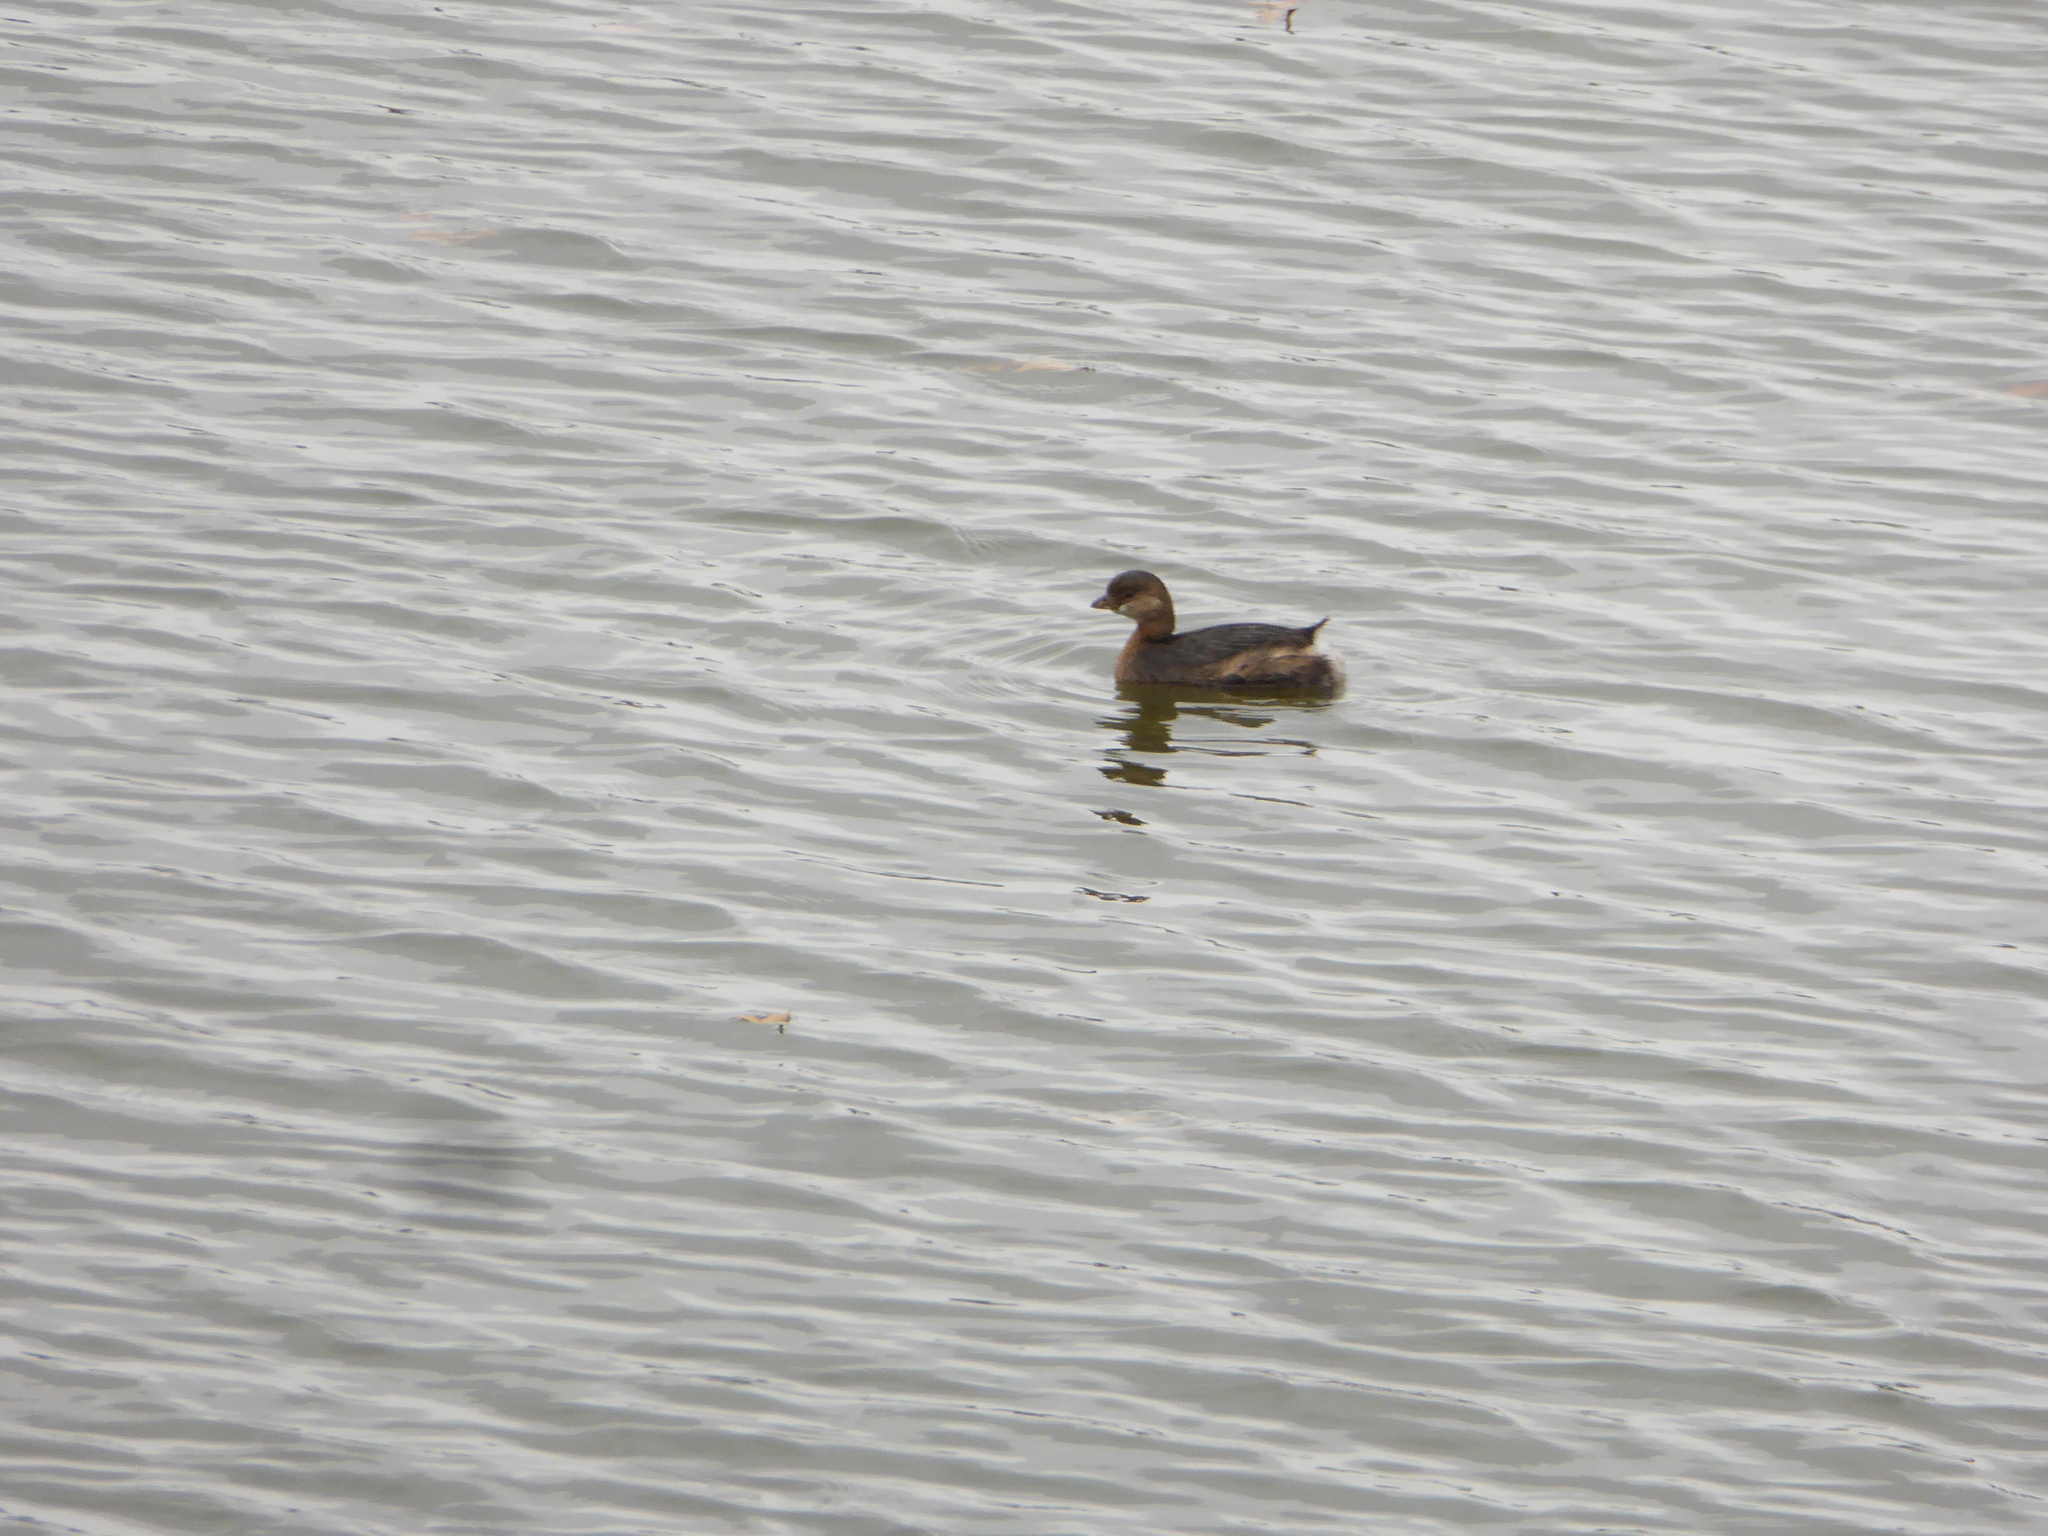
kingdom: Animalia
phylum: Chordata
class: Aves
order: Podicipediformes
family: Podicipedidae
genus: Podilymbus
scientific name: Podilymbus podiceps
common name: Pied-billed grebe
